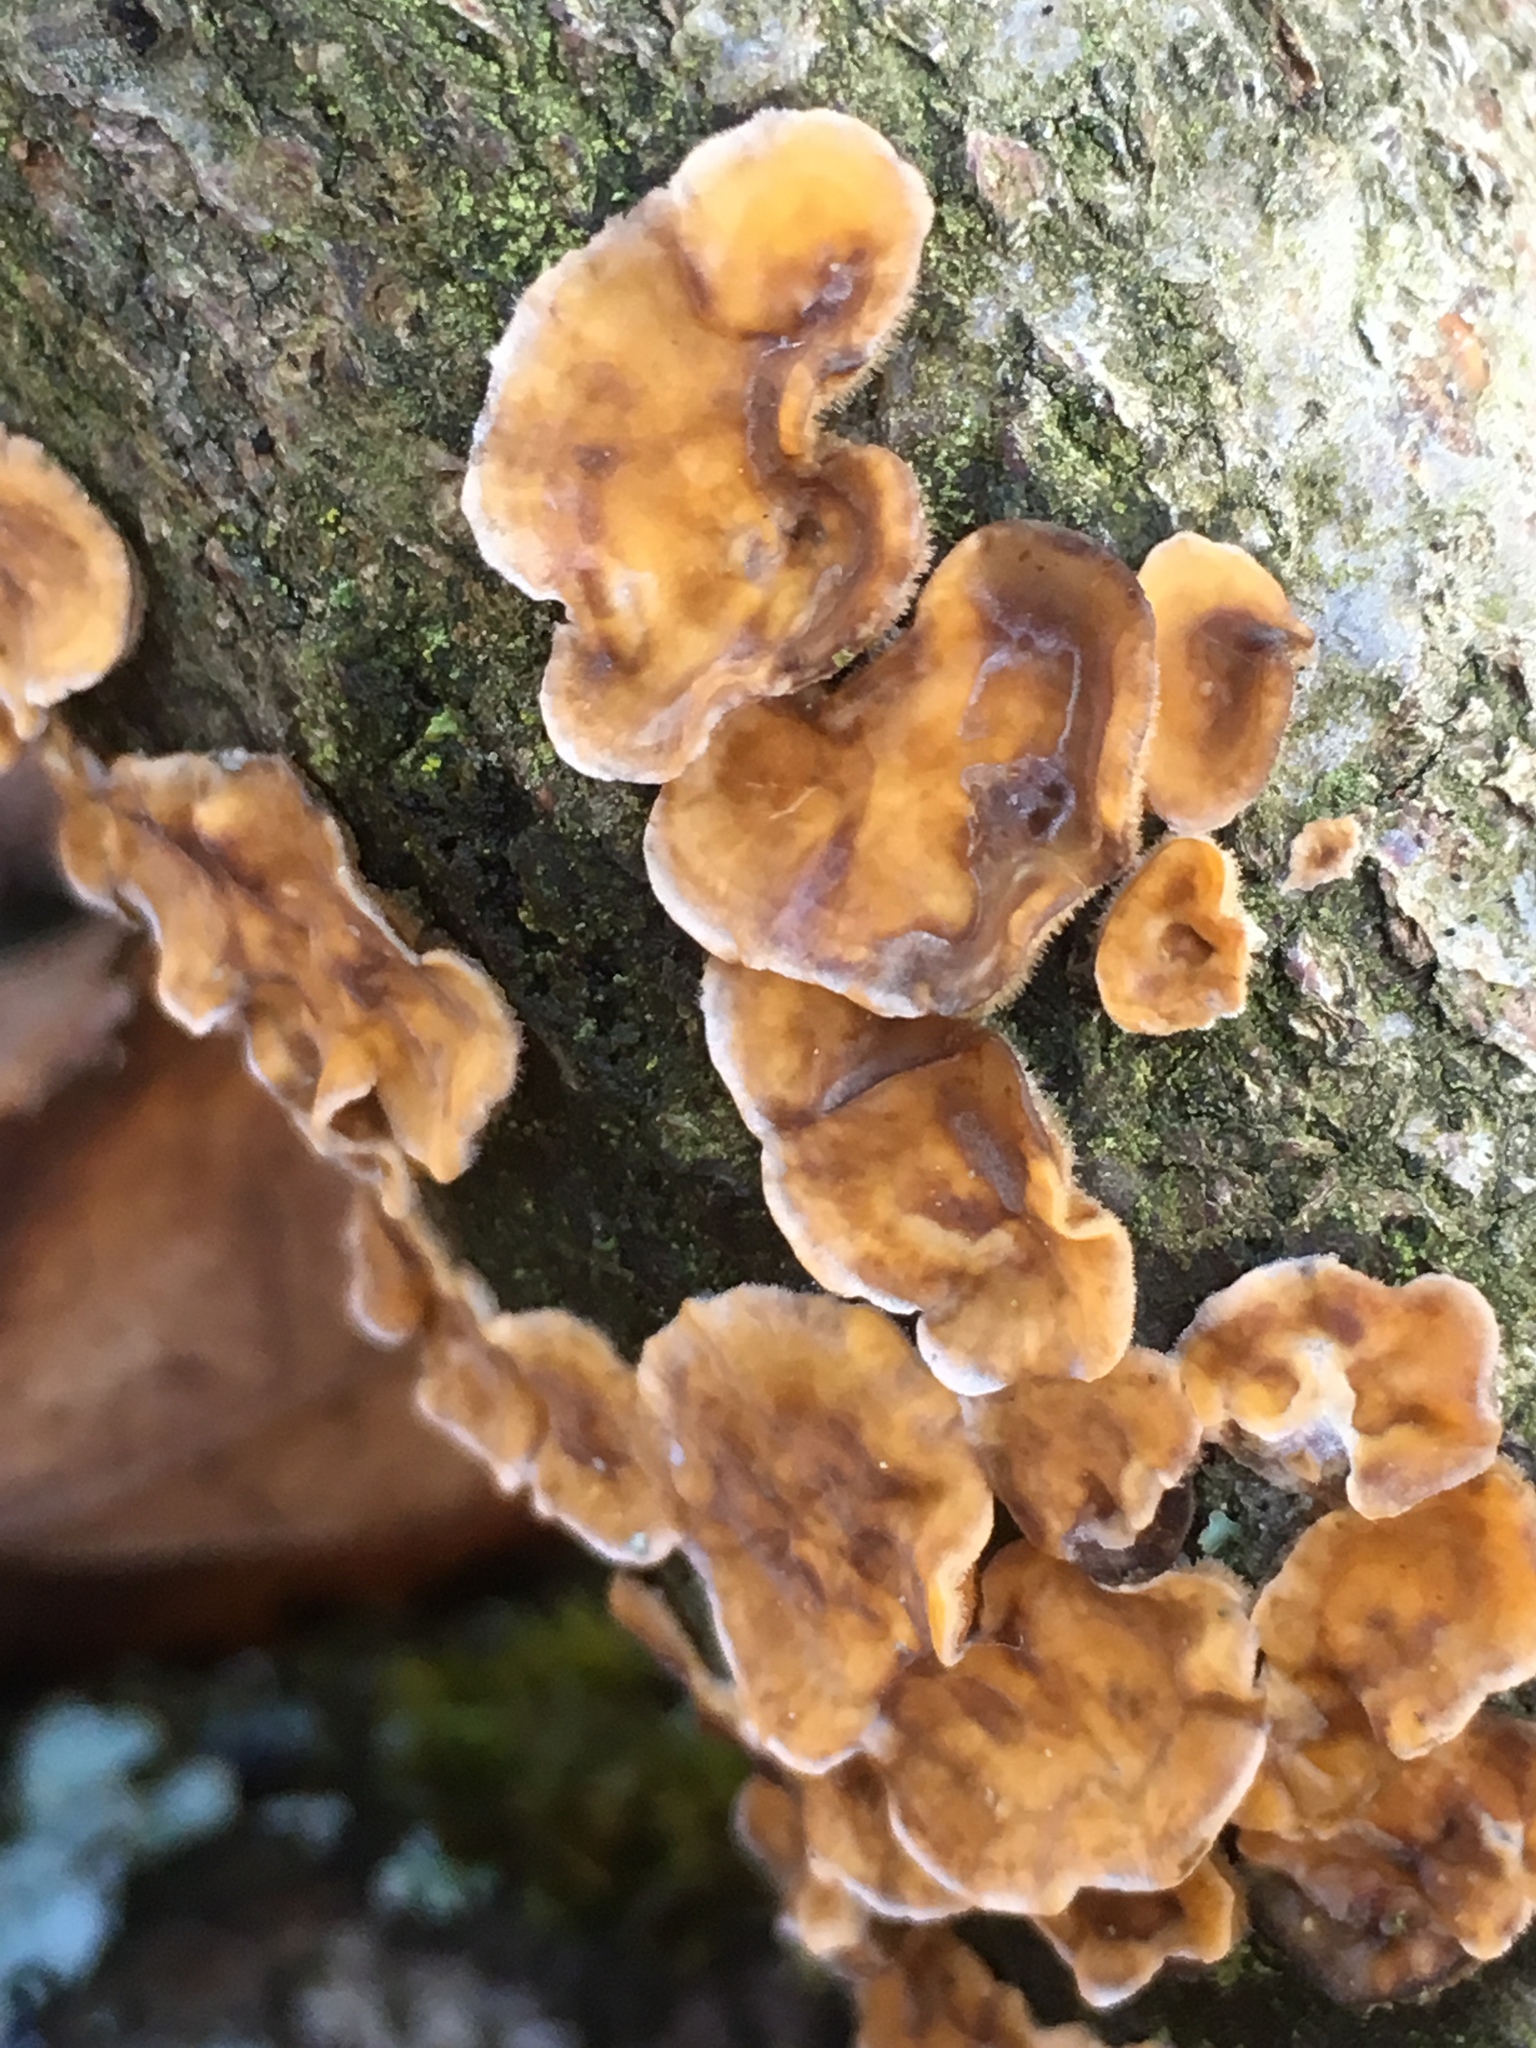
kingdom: Fungi
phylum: Basidiomycota
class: Agaricomycetes
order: Russulales
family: Stereaceae
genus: Stereum
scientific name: Stereum hirsutum
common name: Hairy curtain crust
